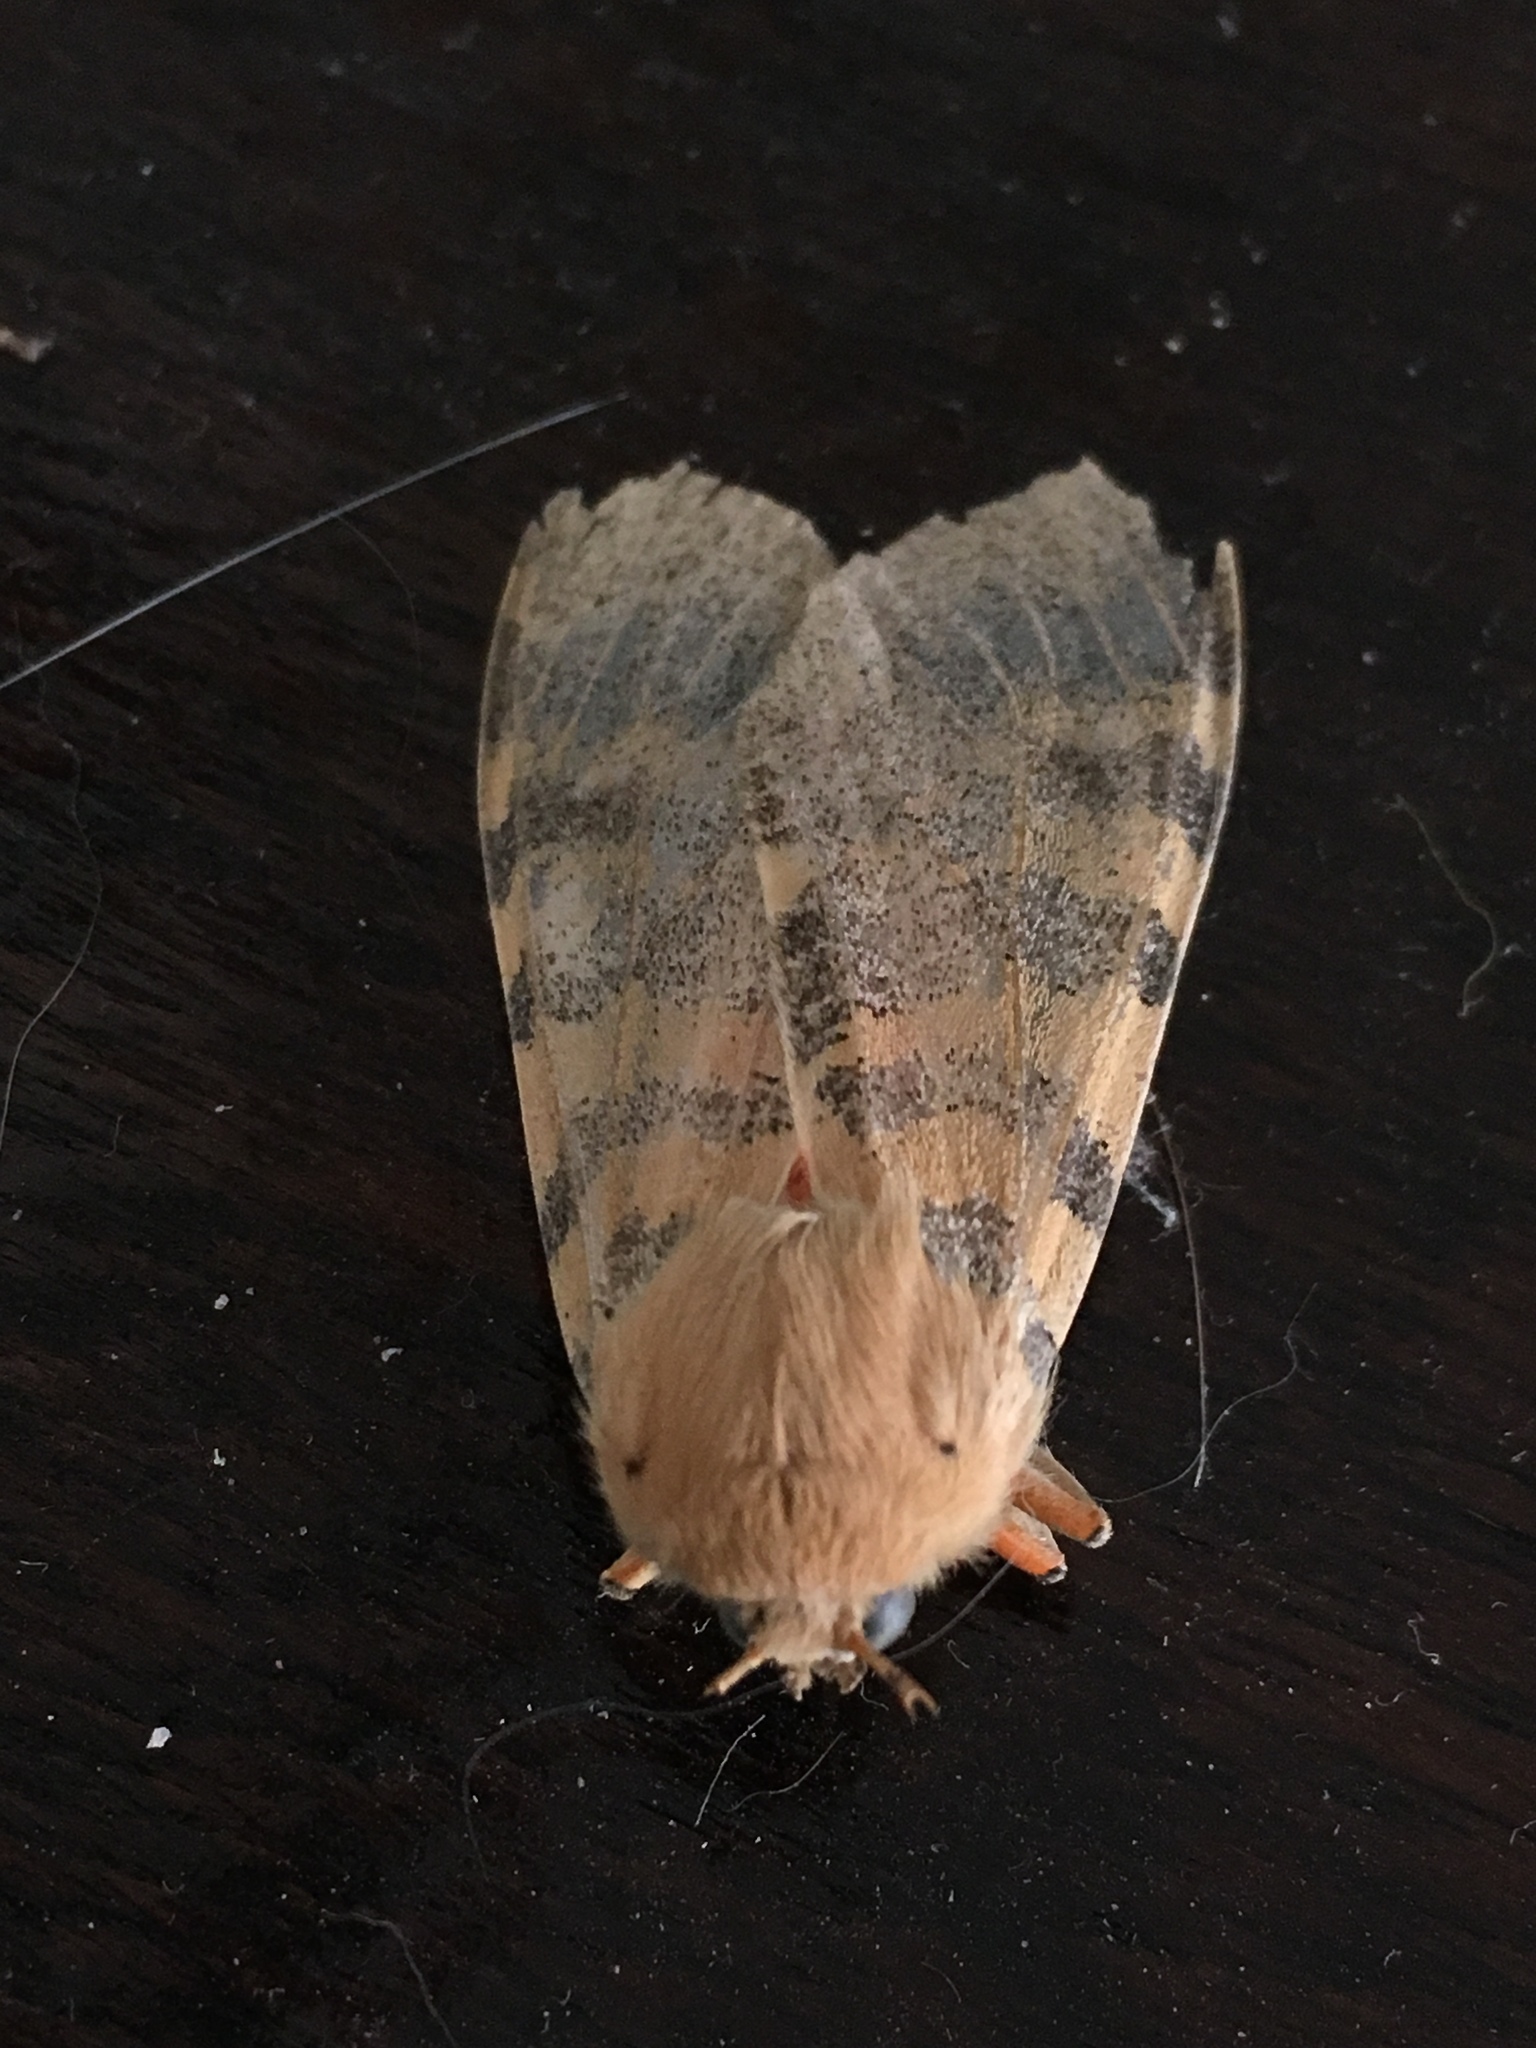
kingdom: Animalia
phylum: Arthropoda
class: Insecta
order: Lepidoptera
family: Erebidae
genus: Hemihyalea
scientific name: Hemihyalea edwardsii
